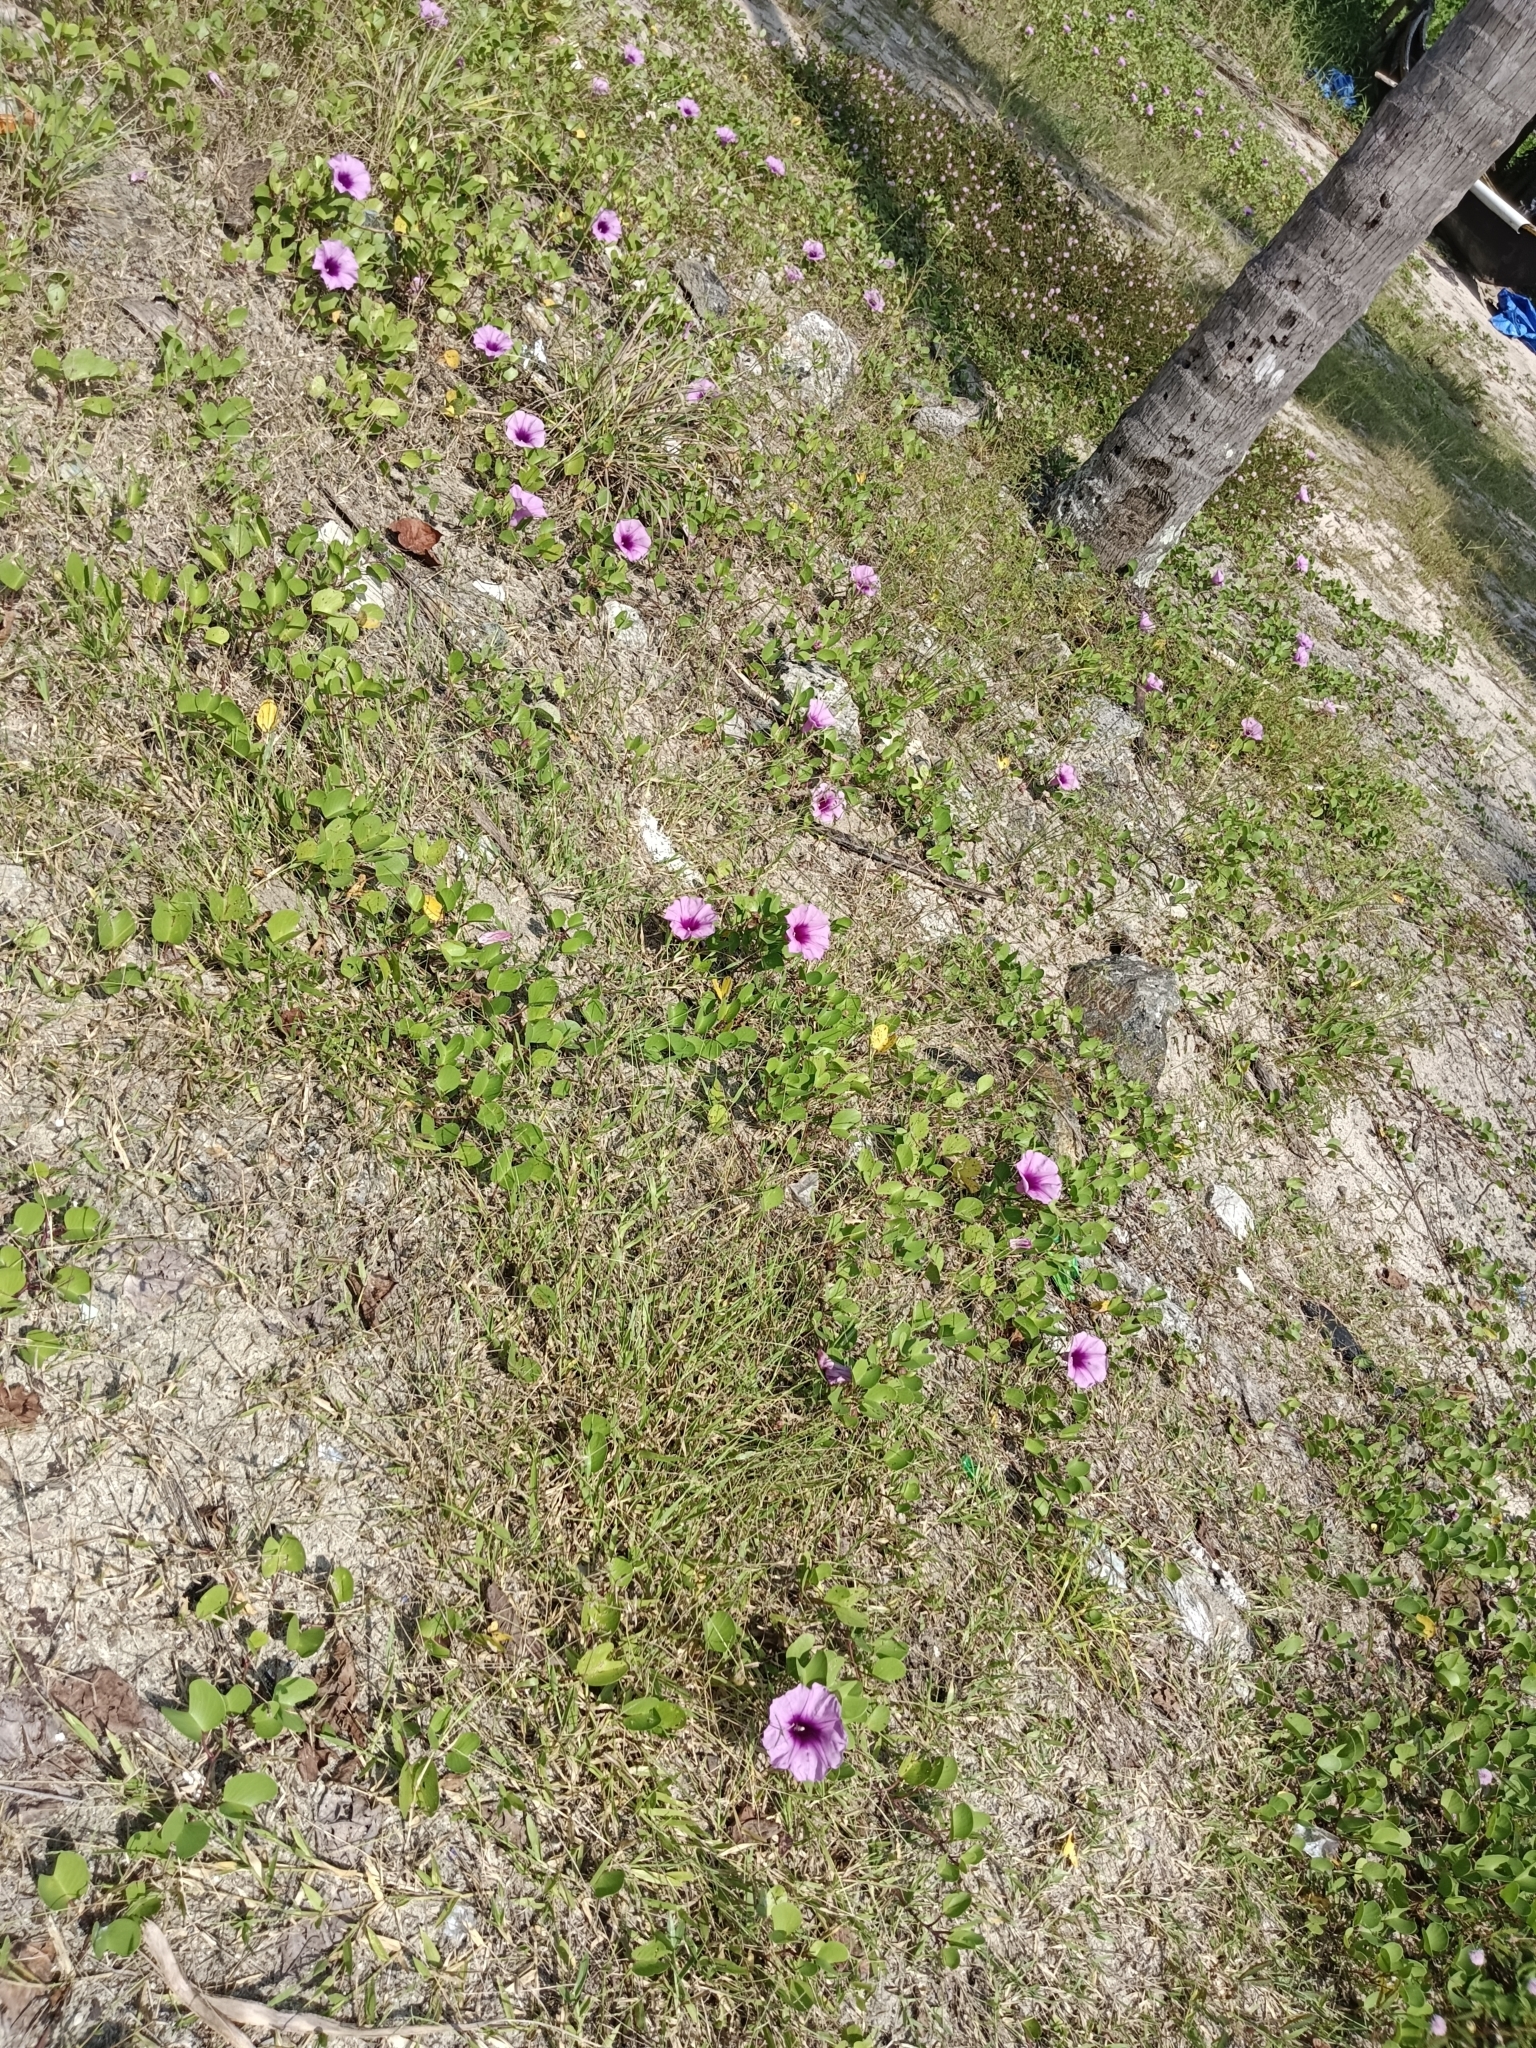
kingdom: Plantae
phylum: Tracheophyta
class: Magnoliopsida
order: Solanales
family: Convolvulaceae
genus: Ipomoea
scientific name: Ipomoea pes-caprae
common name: Beach morning glory
